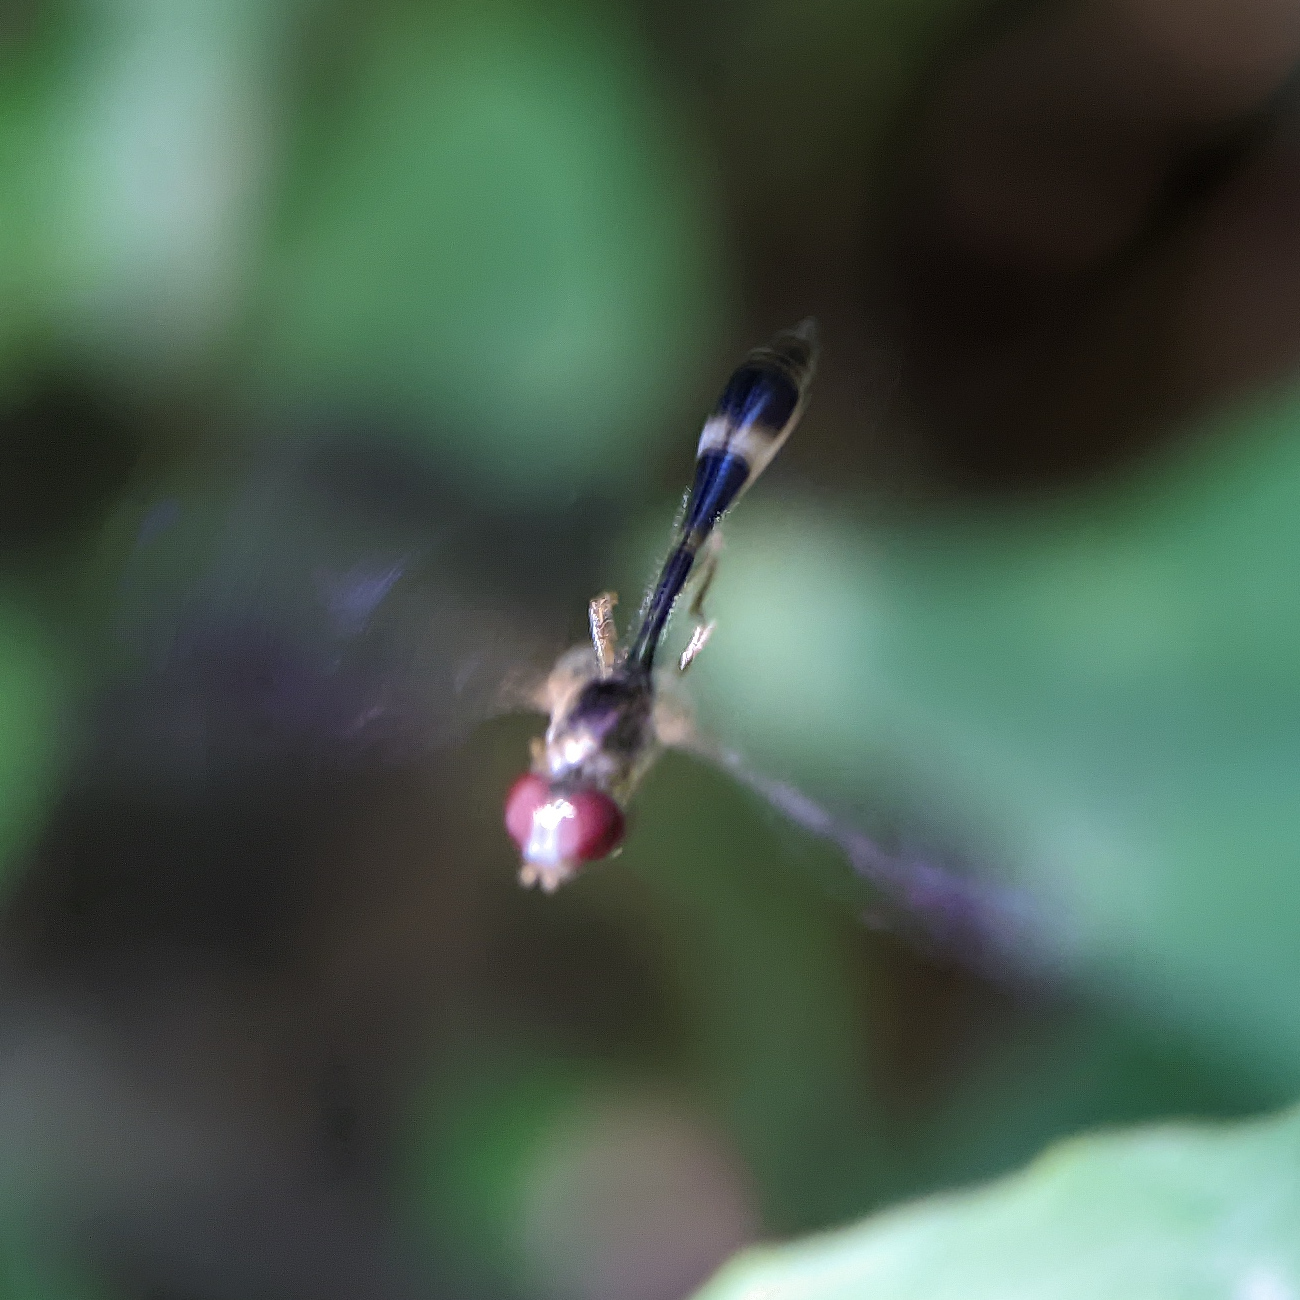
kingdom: Animalia
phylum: Arthropoda
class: Insecta
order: Diptera
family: Syrphidae
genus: Baccha
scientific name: Baccha elongata
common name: Common dainty
